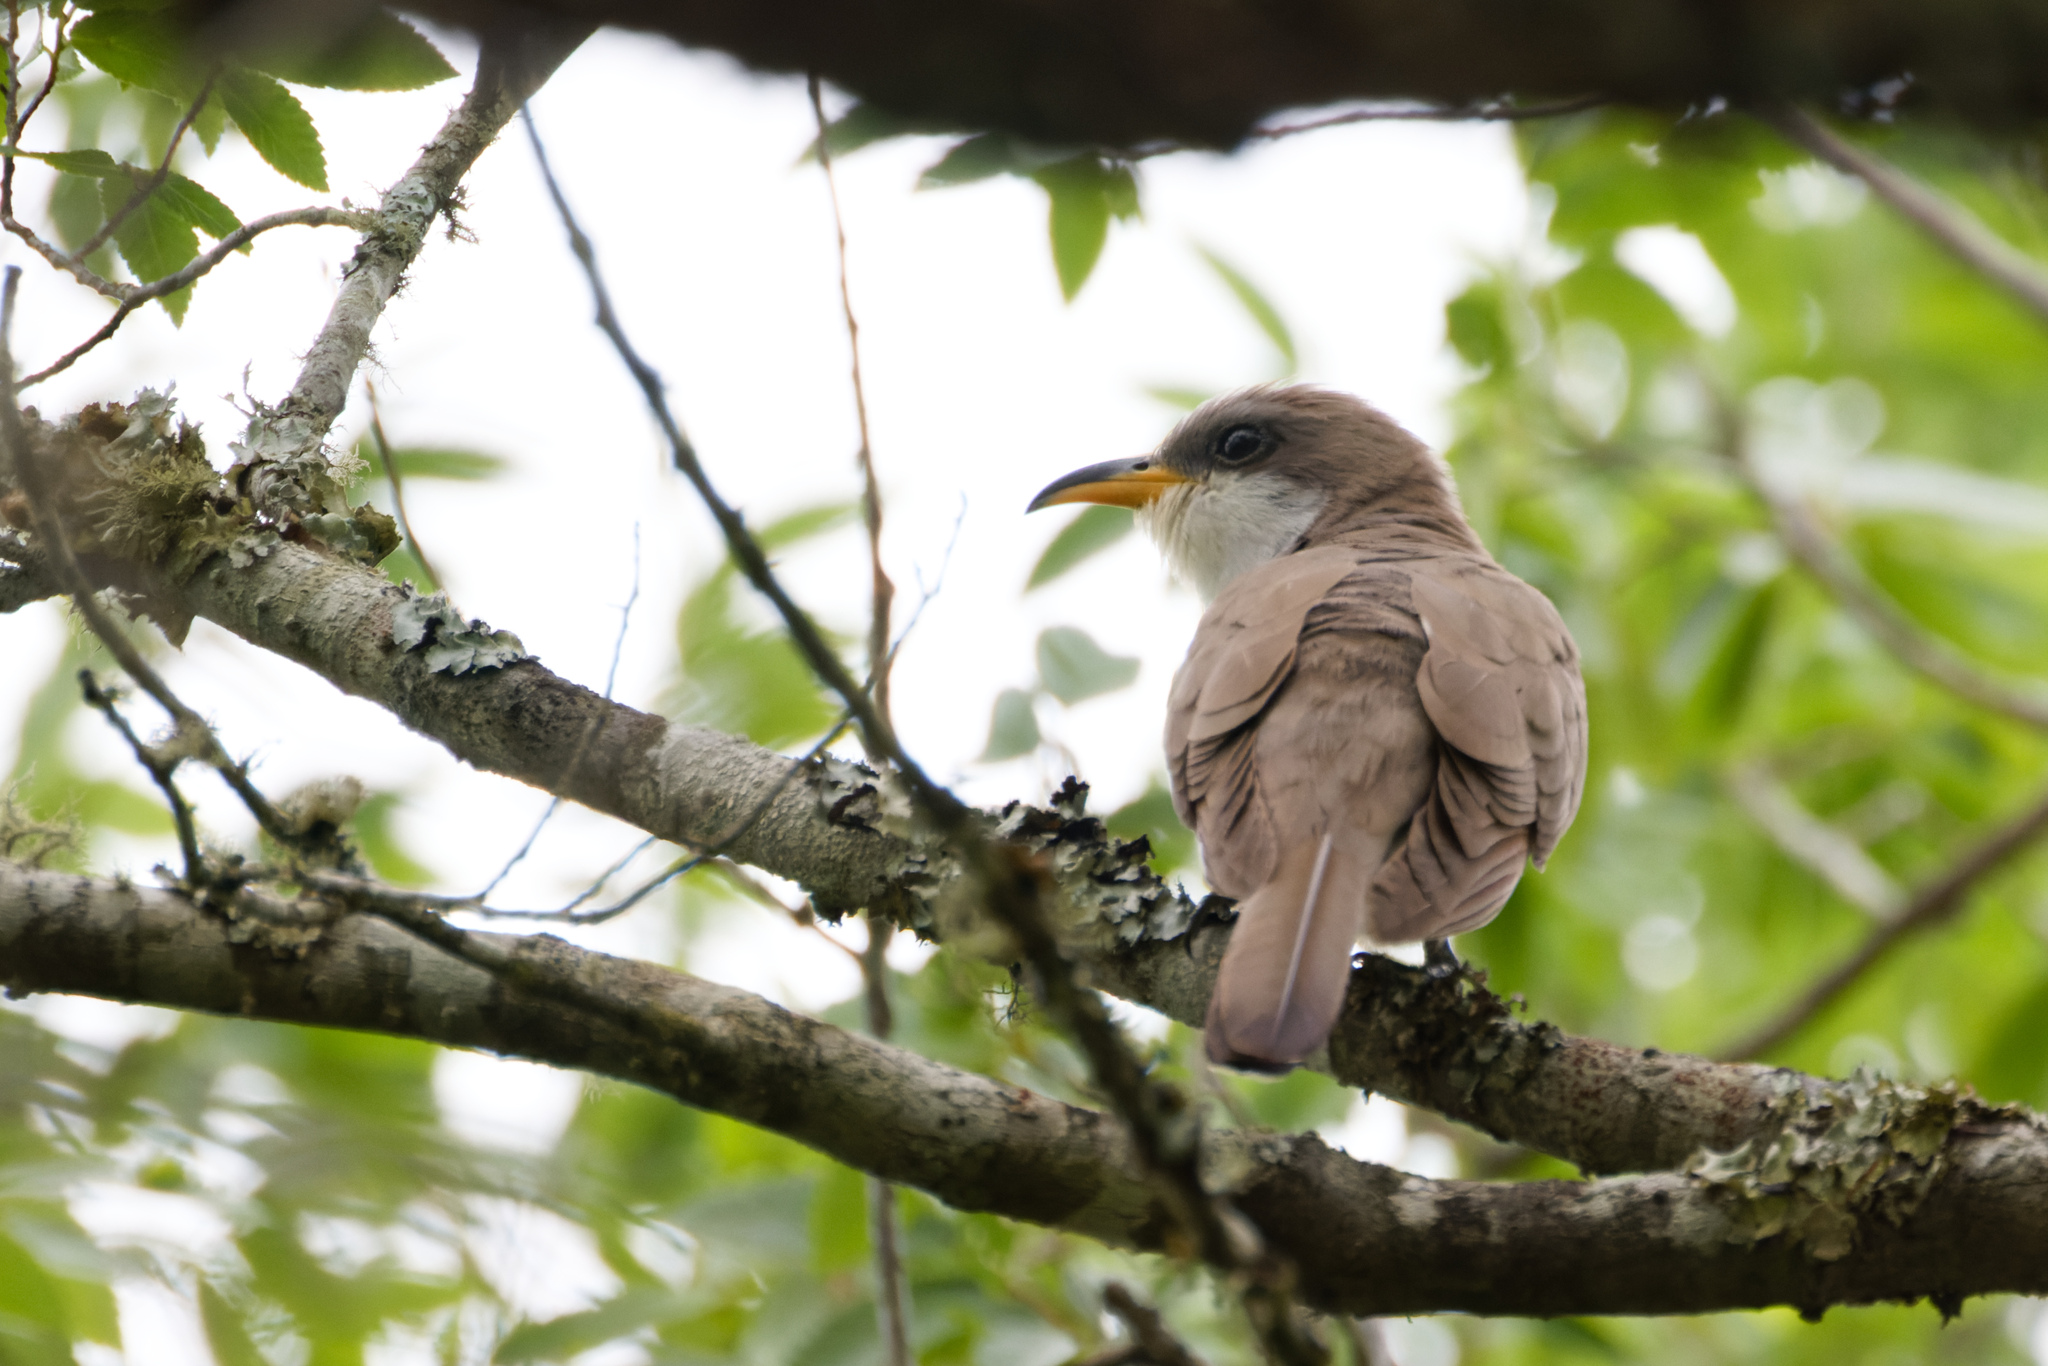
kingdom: Animalia
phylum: Chordata
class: Aves
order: Cuculiformes
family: Cuculidae
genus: Coccyzus
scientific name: Coccyzus americanus
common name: Yellow-billed cuckoo
